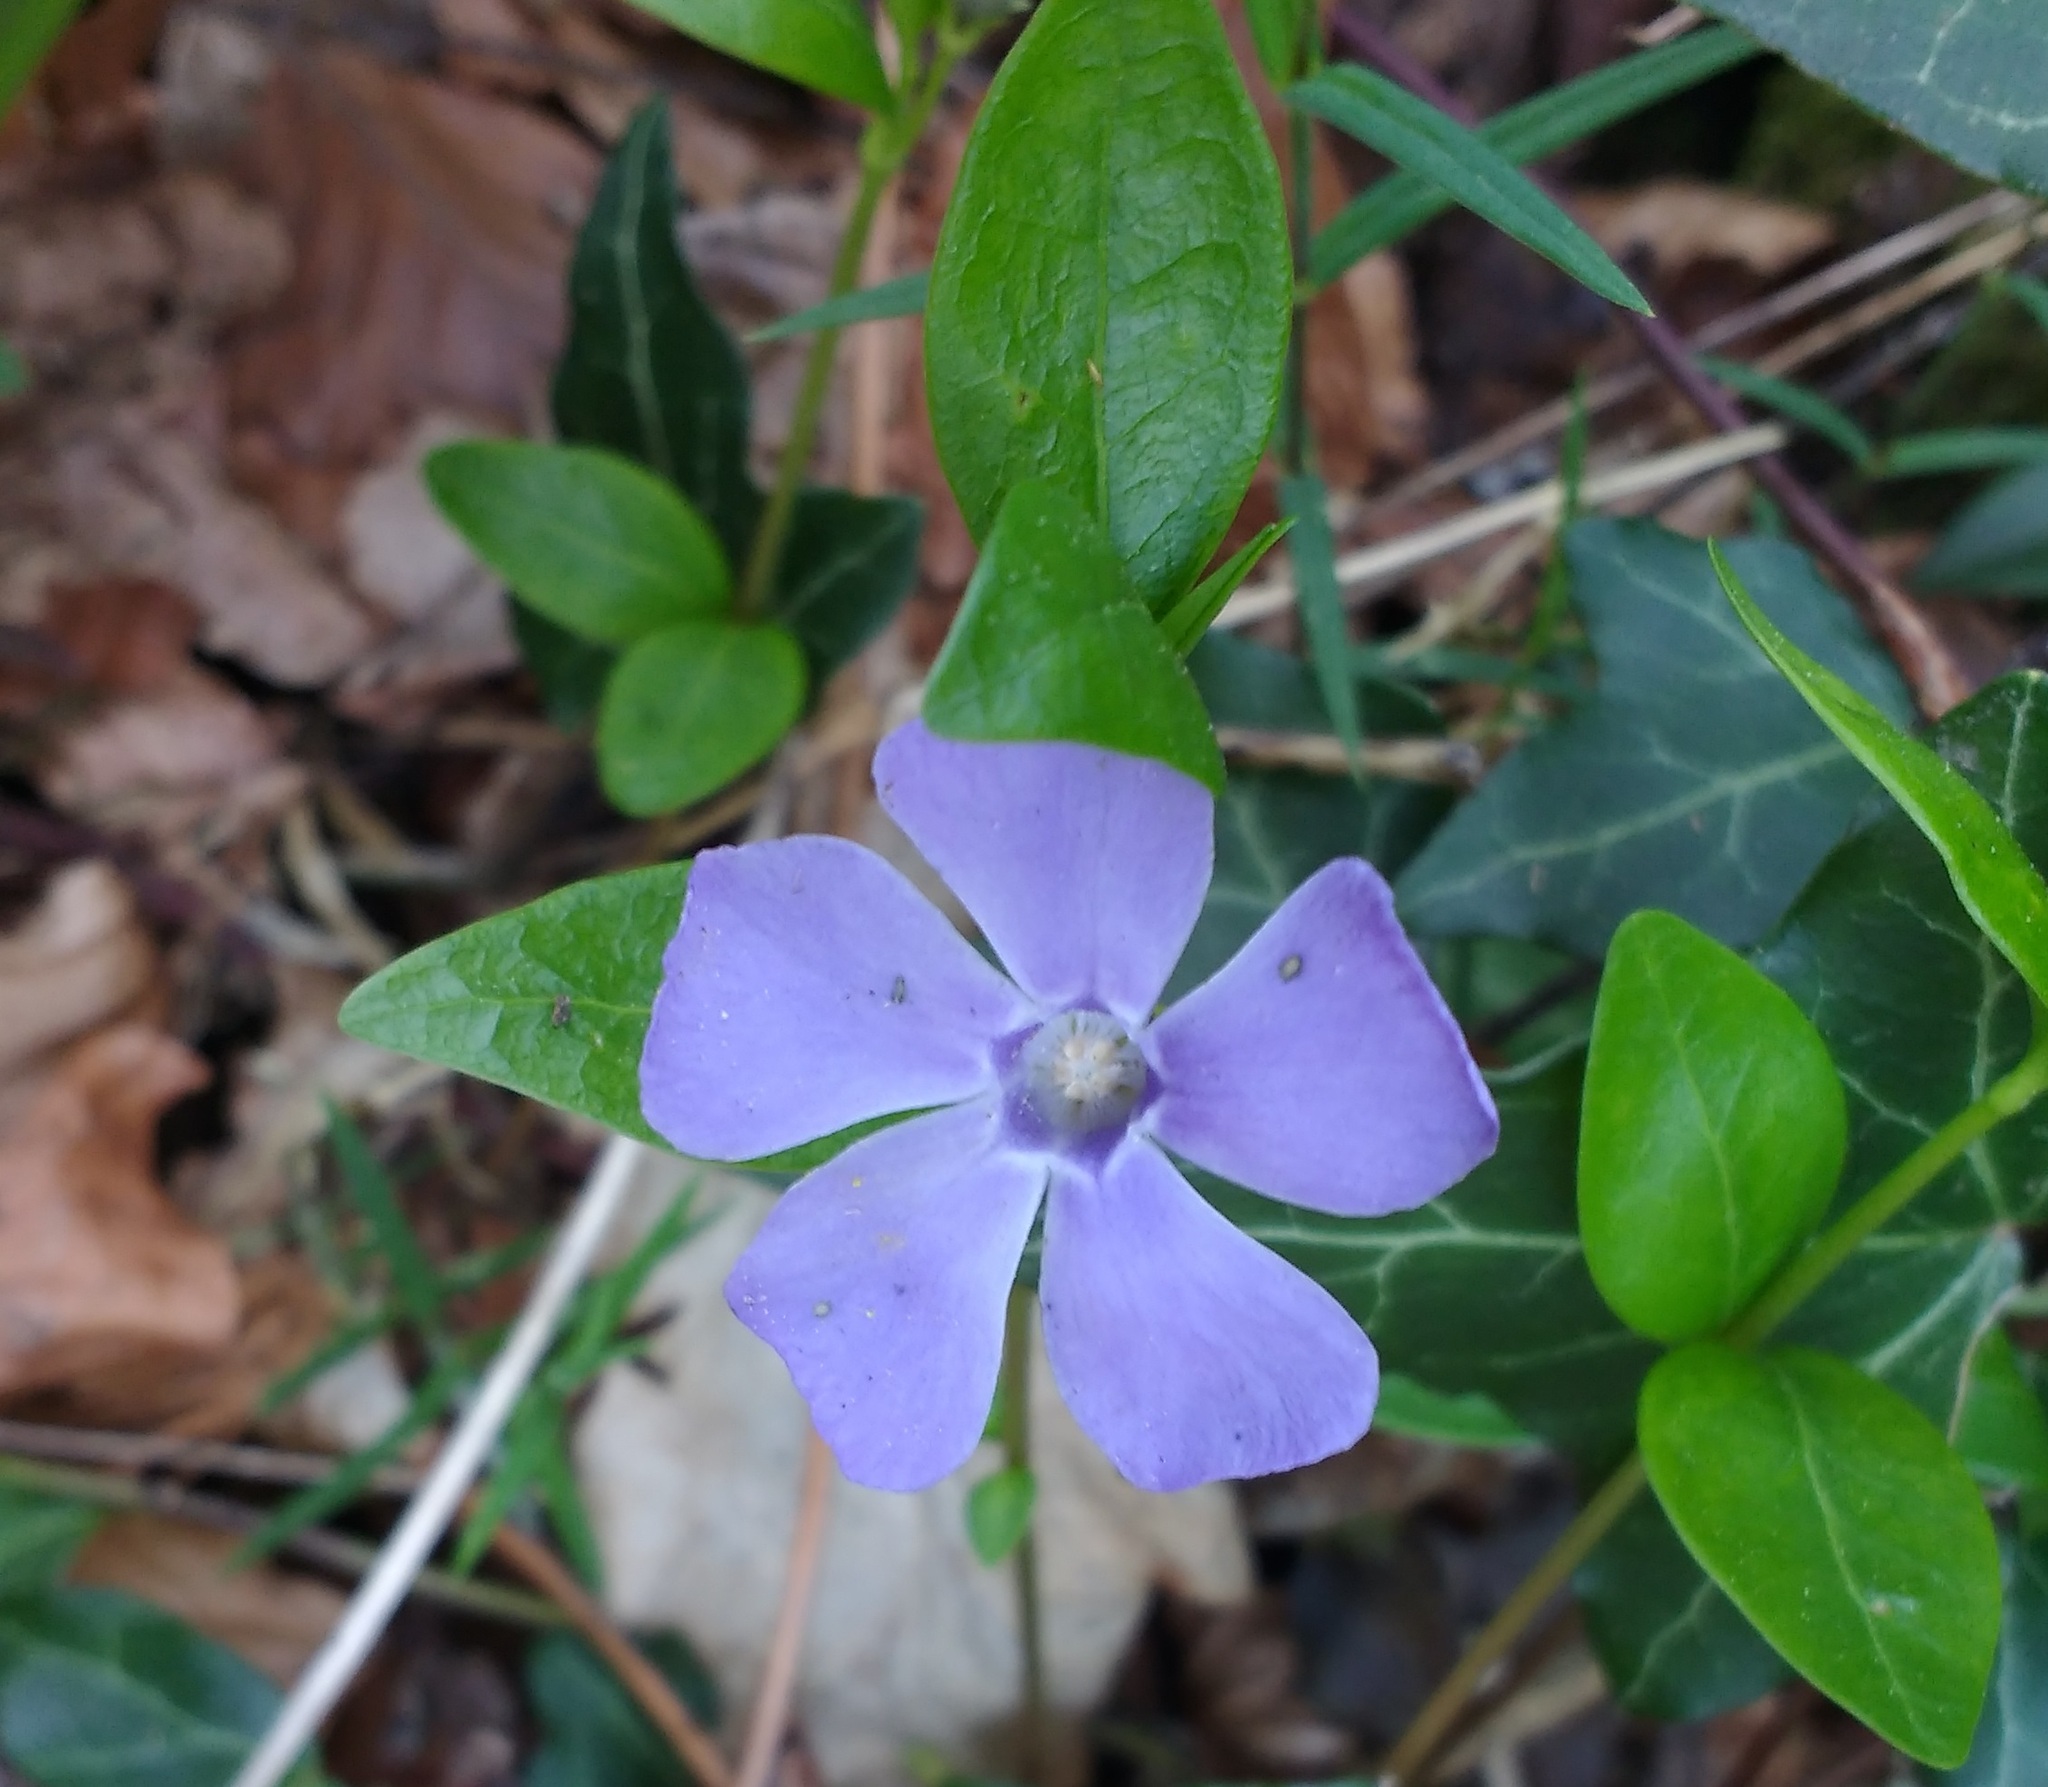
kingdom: Plantae
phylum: Tracheophyta
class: Magnoliopsida
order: Gentianales
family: Apocynaceae
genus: Vinca
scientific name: Vinca minor
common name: Lesser periwinkle
